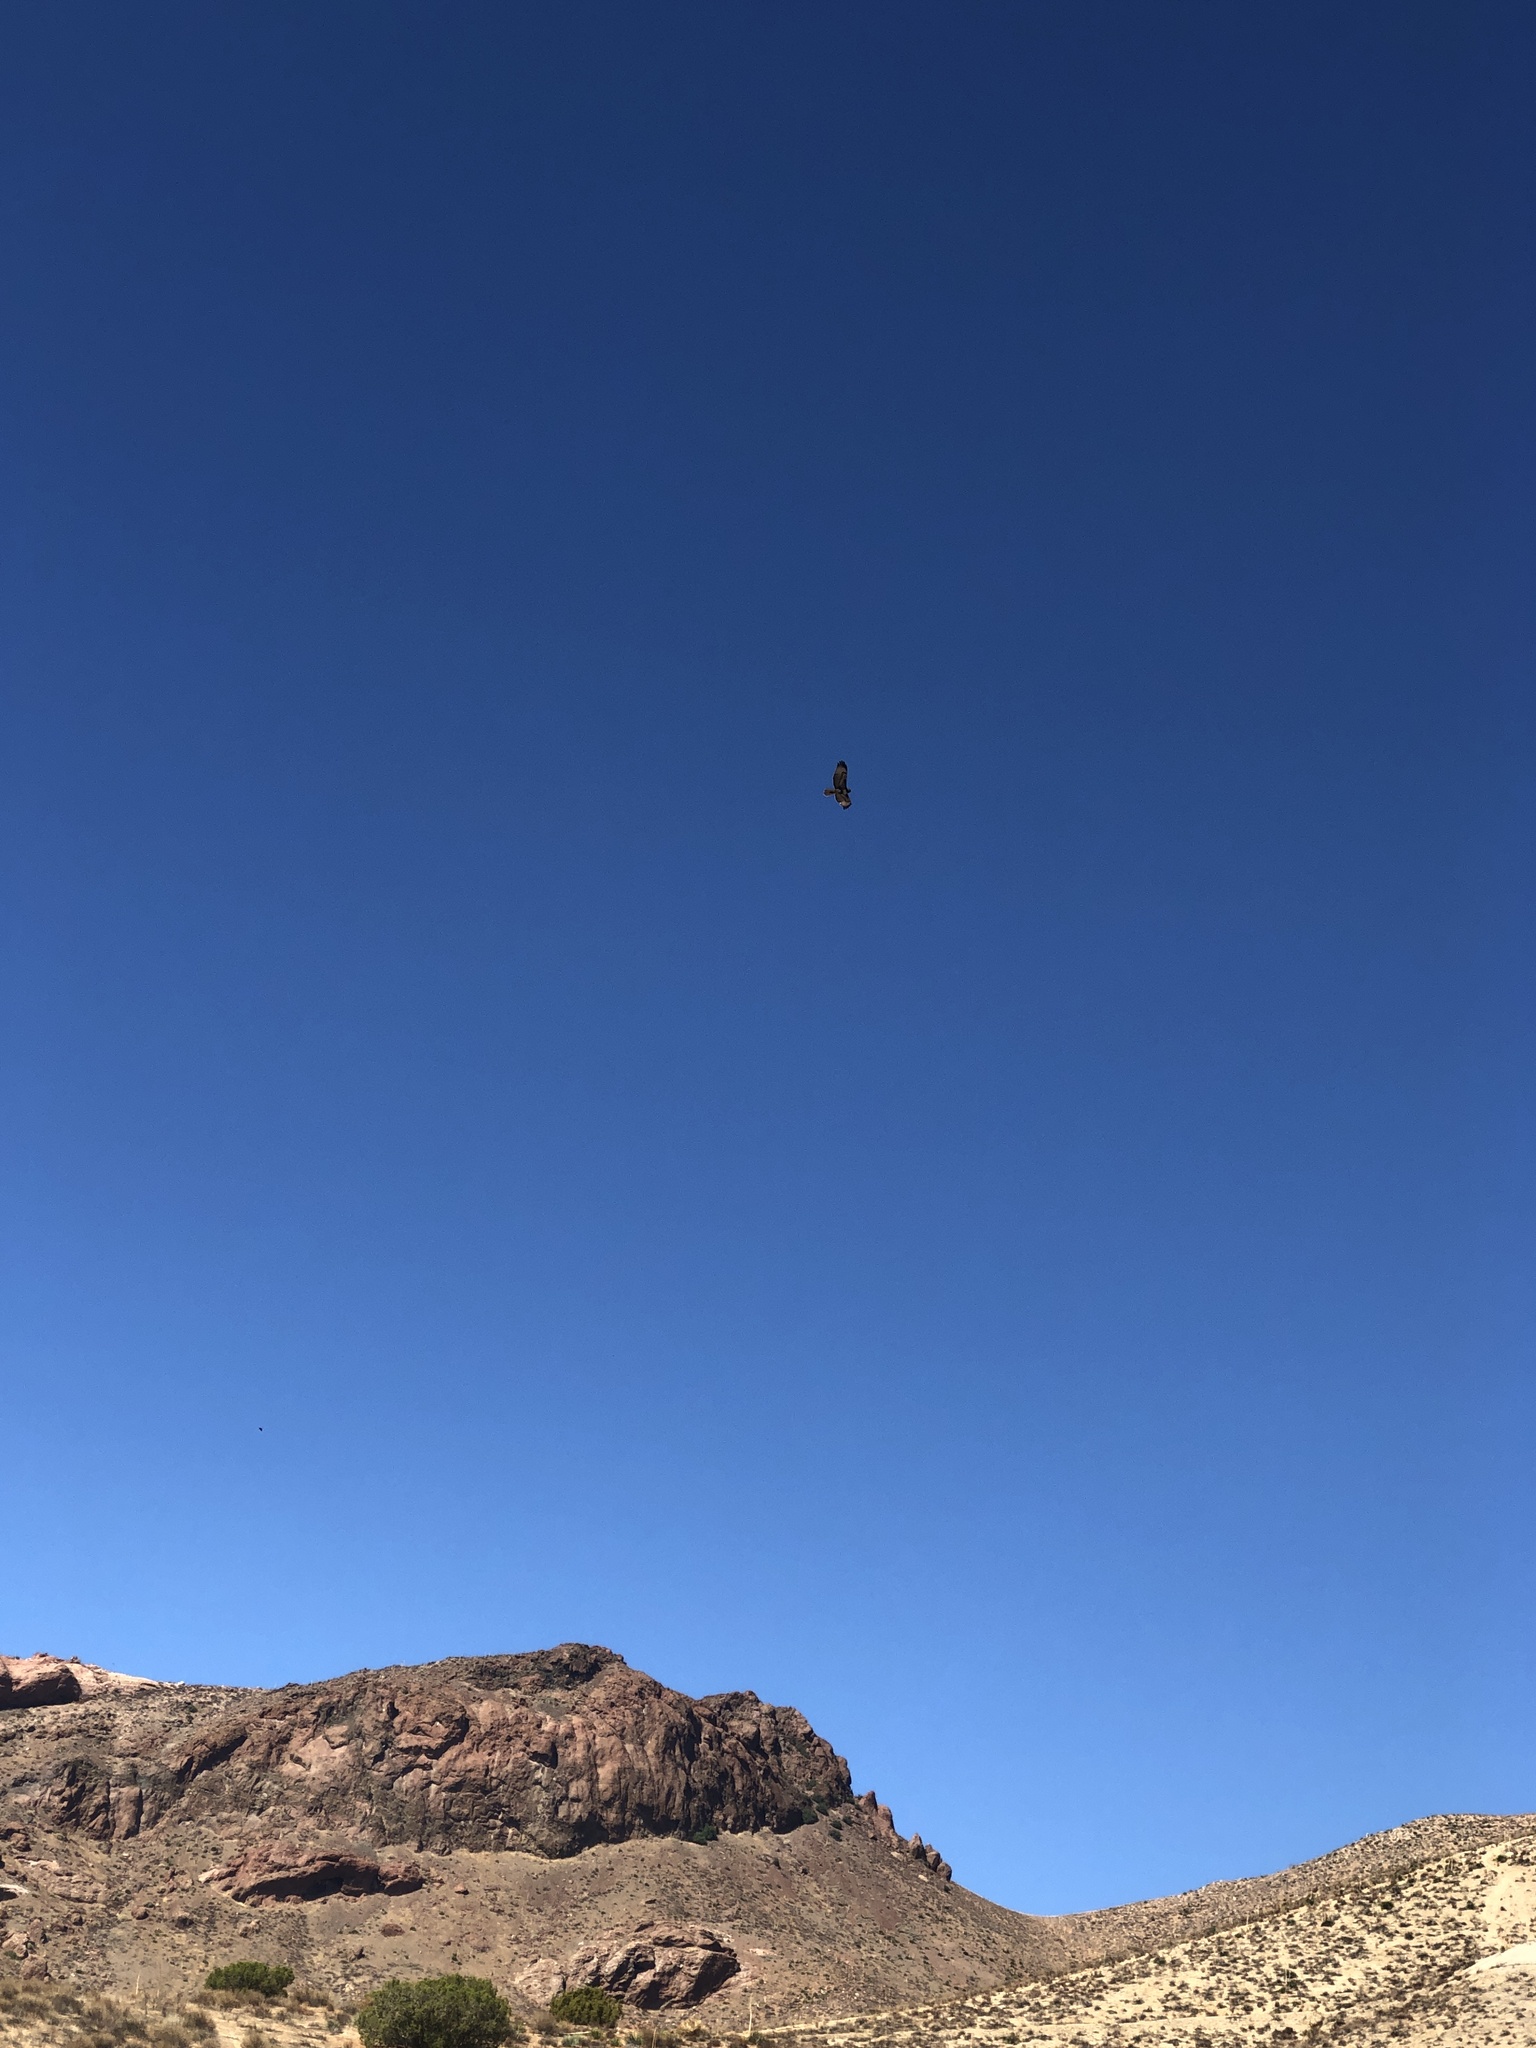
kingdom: Animalia
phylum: Chordata
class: Aves
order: Accipitriformes
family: Accipitridae
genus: Buteo
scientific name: Buteo jamaicensis
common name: Red-tailed hawk
